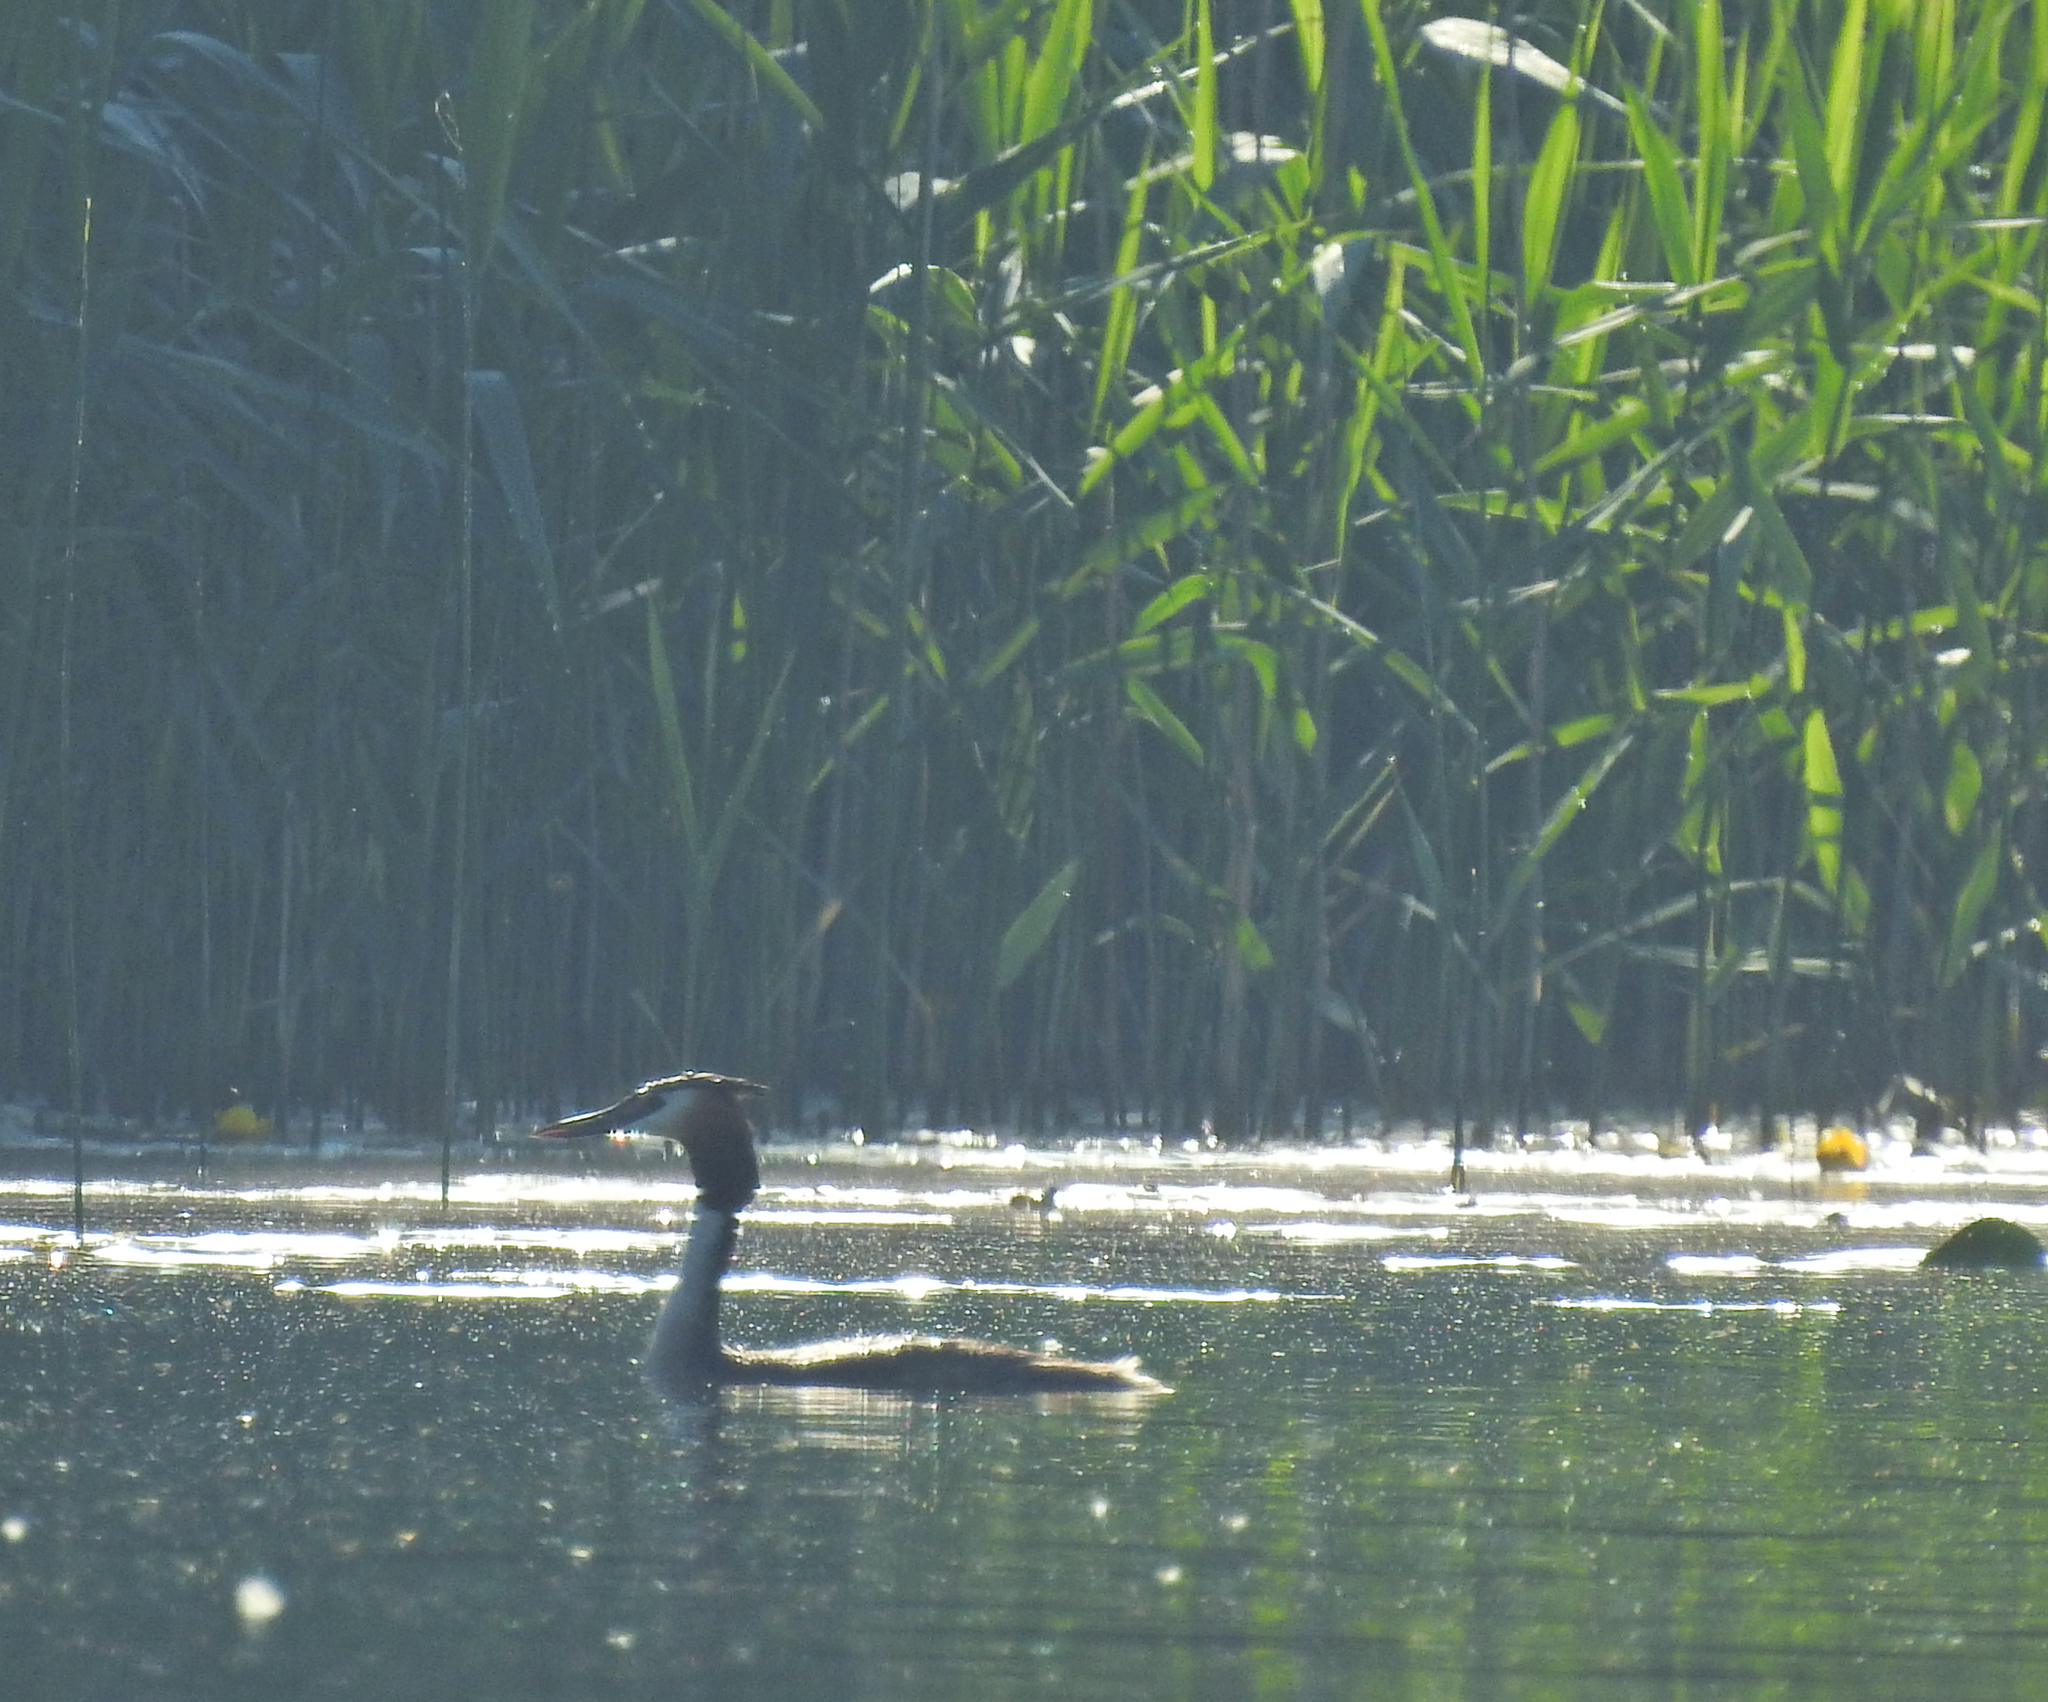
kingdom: Animalia
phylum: Chordata
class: Aves
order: Podicipediformes
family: Podicipedidae
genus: Podiceps
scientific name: Podiceps cristatus
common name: Great crested grebe
